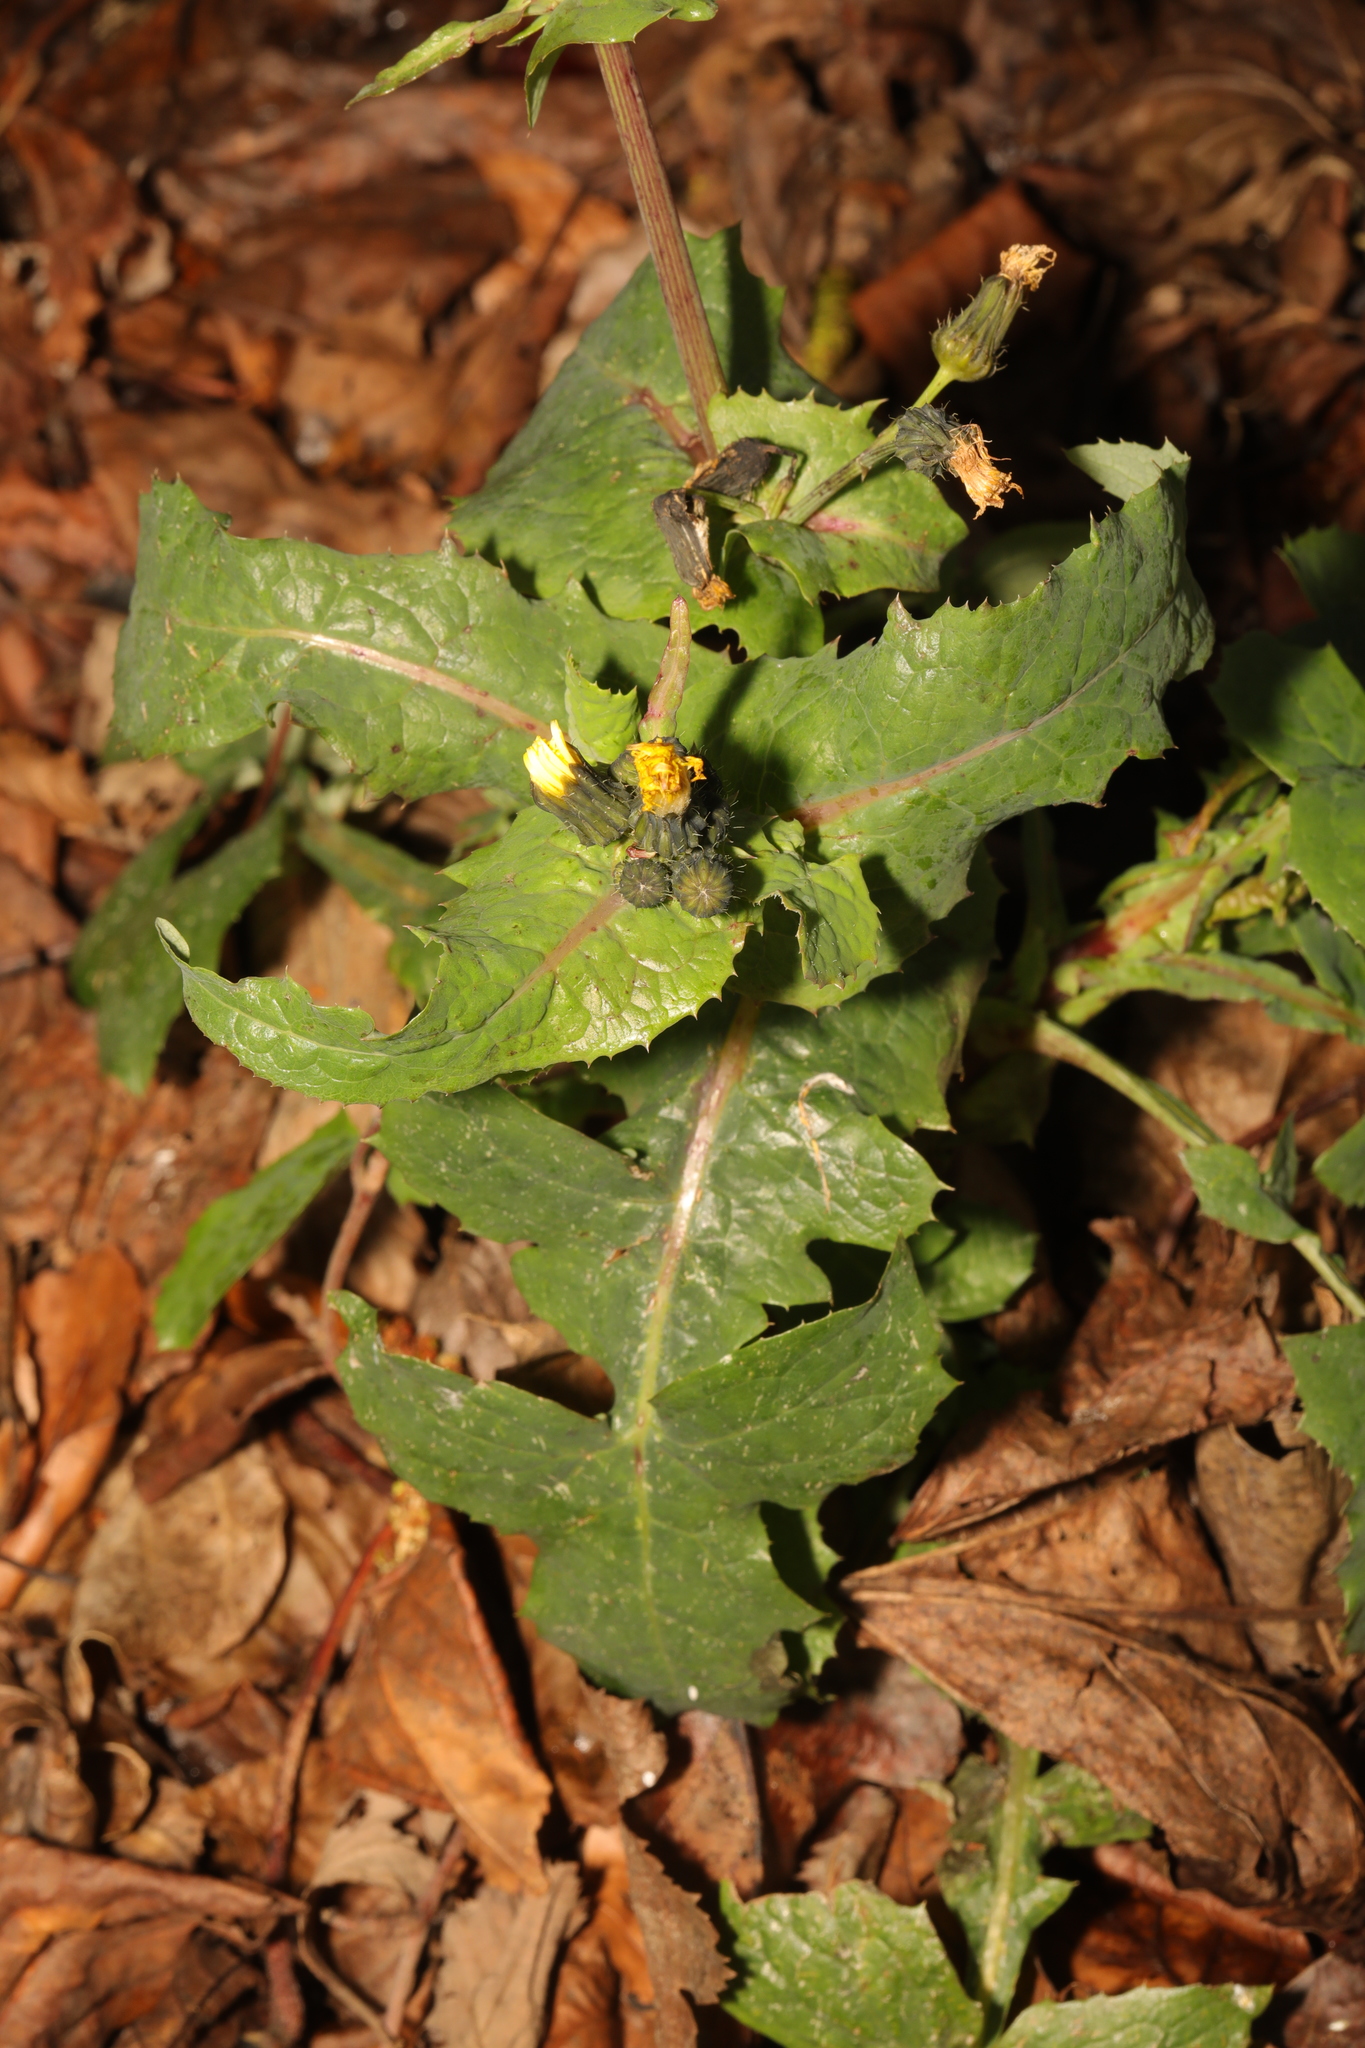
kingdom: Plantae
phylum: Tracheophyta
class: Magnoliopsida
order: Asterales
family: Asteraceae
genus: Sonchus
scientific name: Sonchus oleraceus
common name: Common sowthistle
